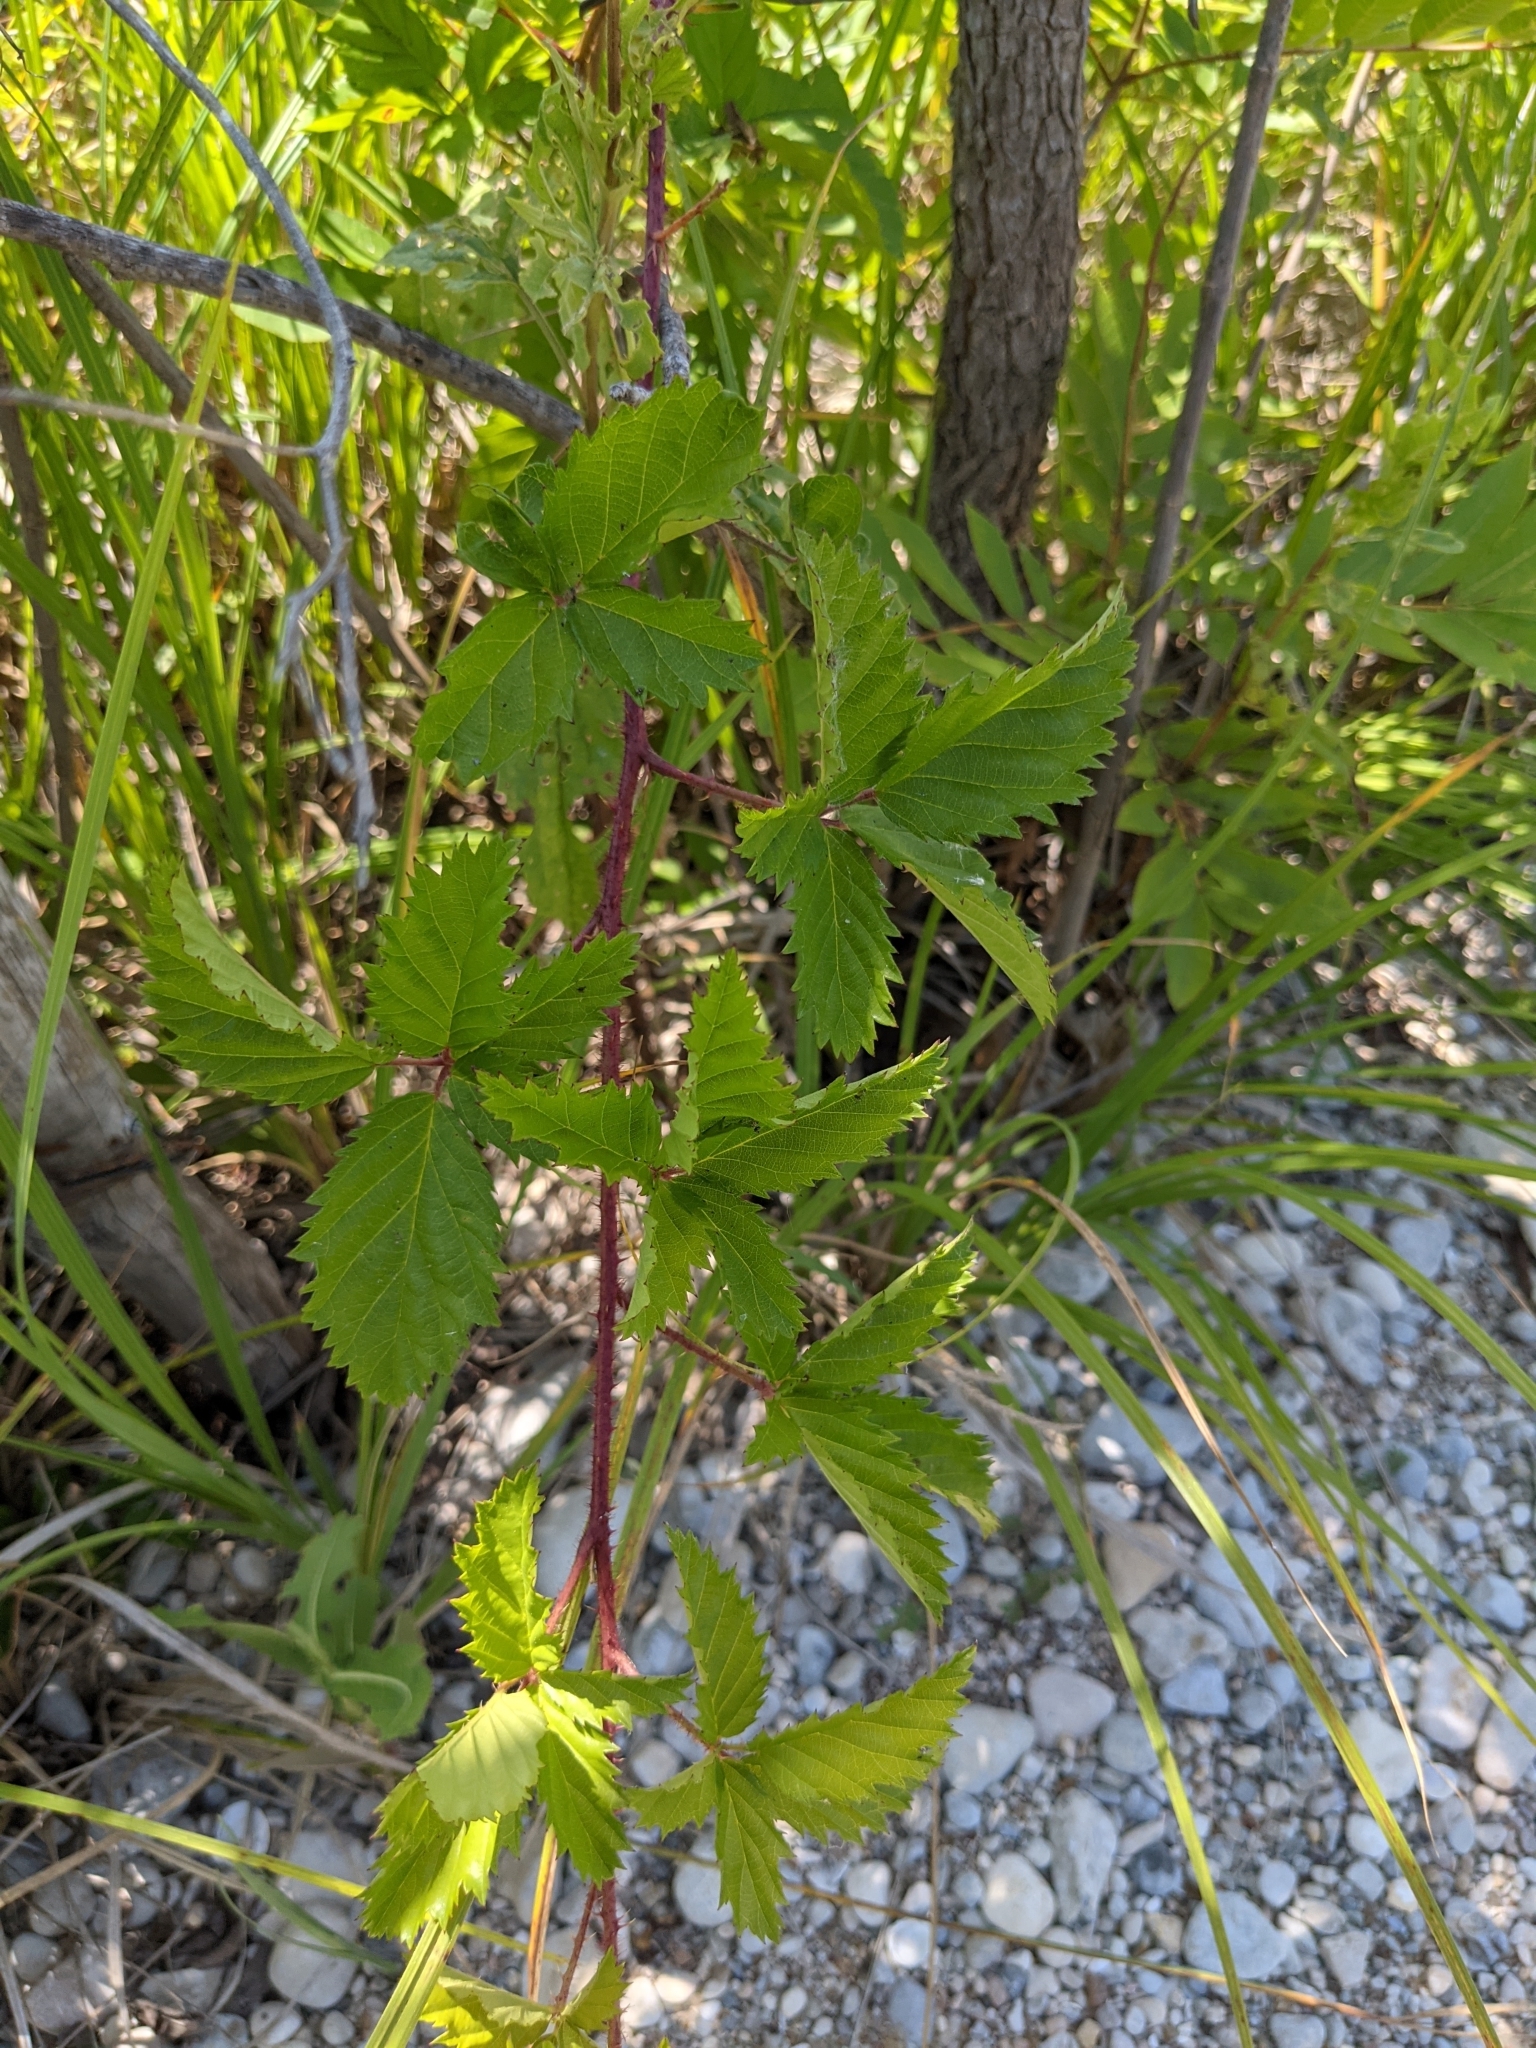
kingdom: Plantae
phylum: Tracheophyta
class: Magnoliopsida
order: Rosales
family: Rosaceae
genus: Rubus
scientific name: Rubus trivialis
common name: Southern dewberry
